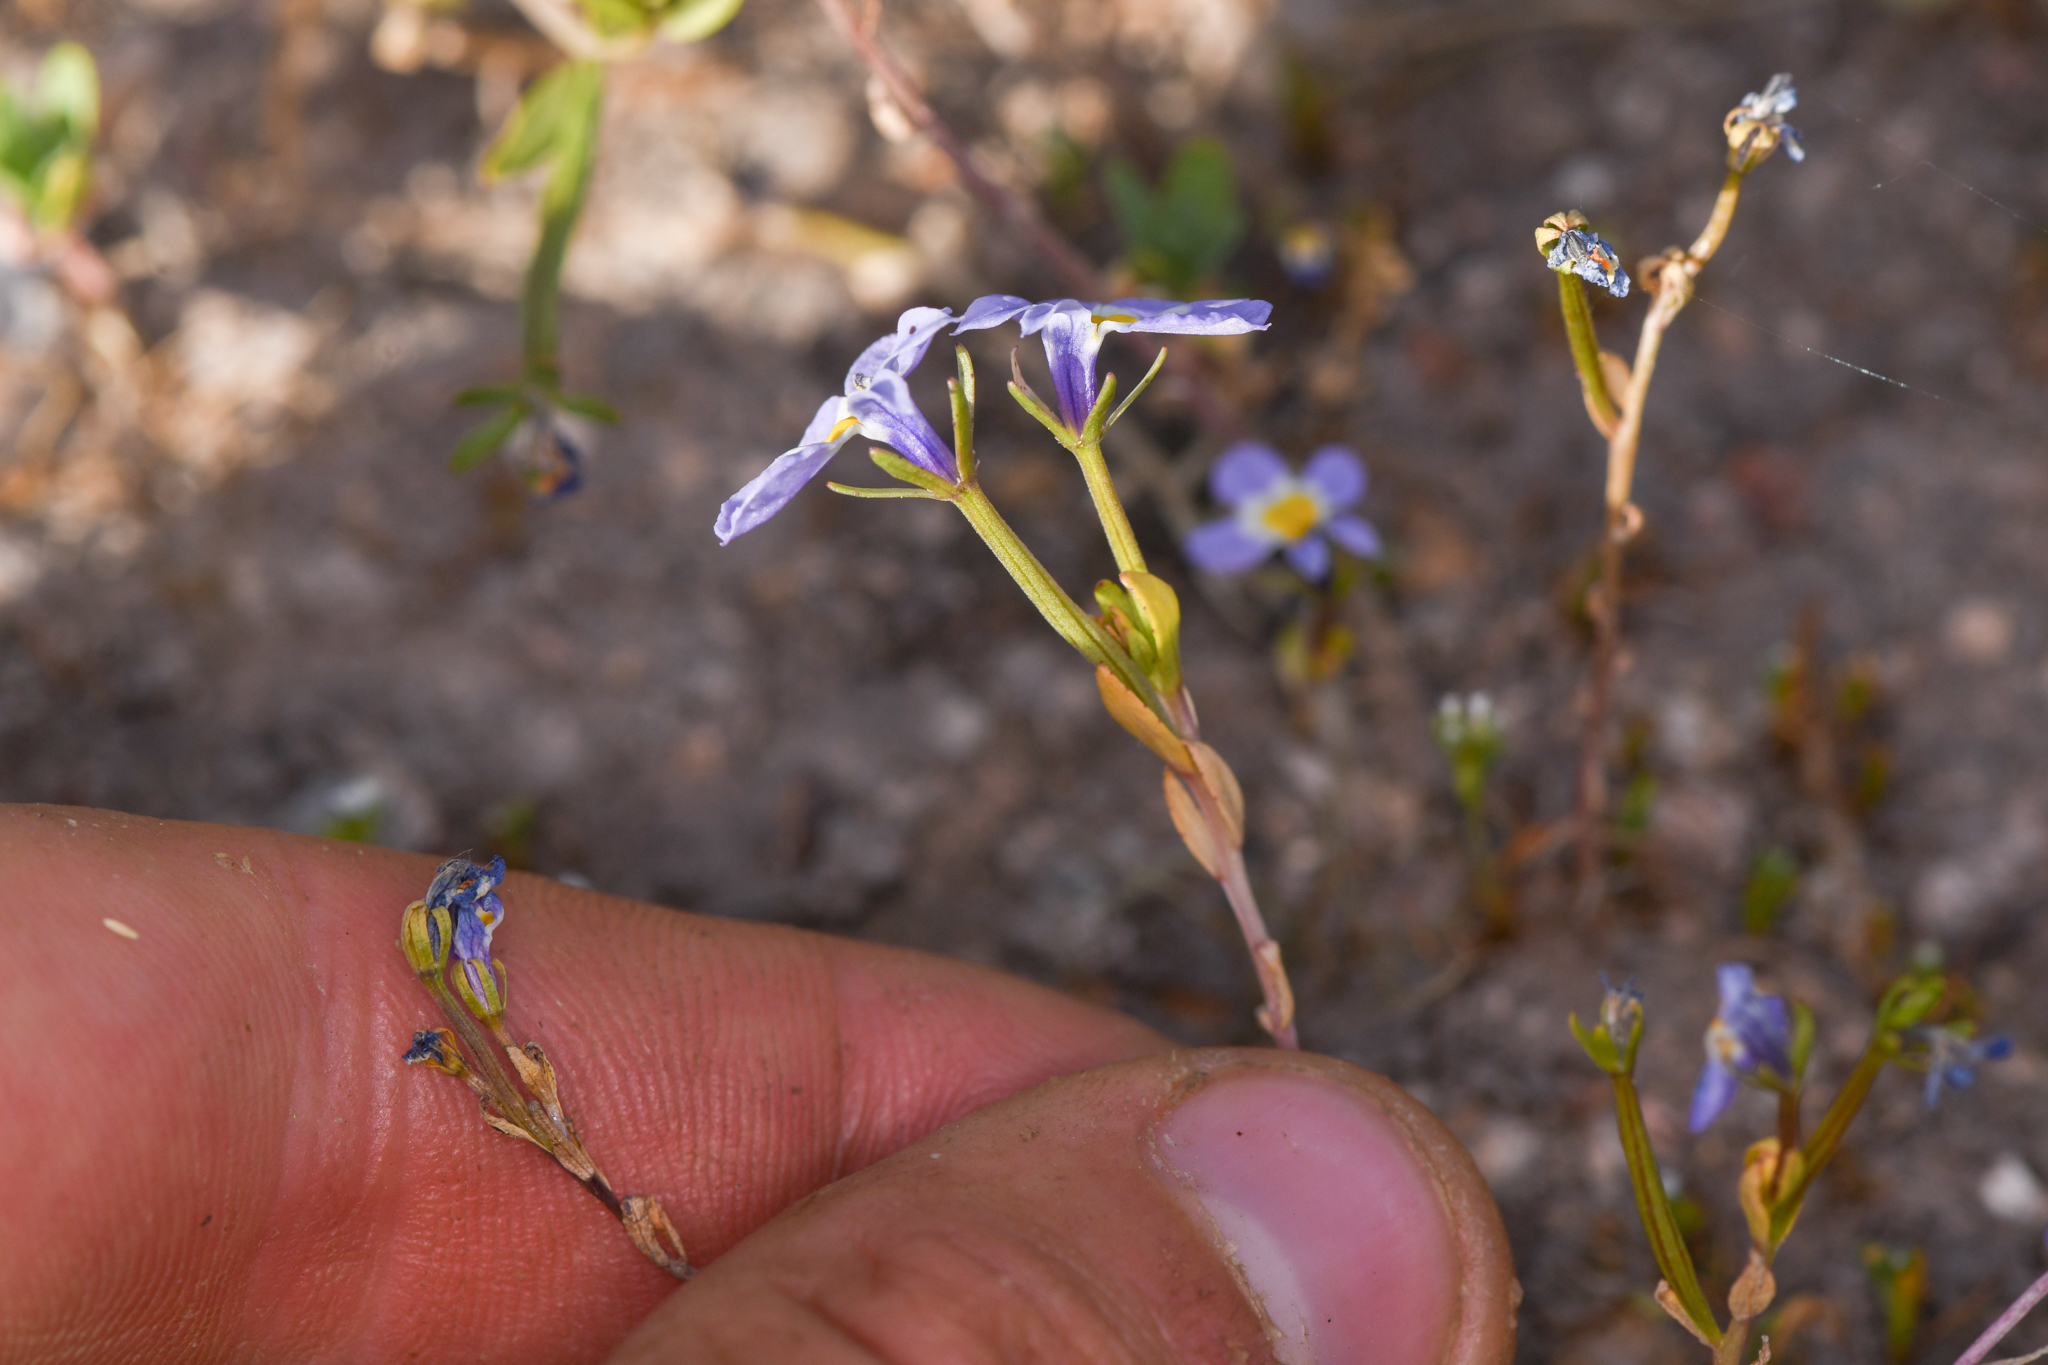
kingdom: Plantae
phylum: Tracheophyta
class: Magnoliopsida
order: Asterales
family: Campanulaceae
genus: Downingia
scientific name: Downingia cuspidata
